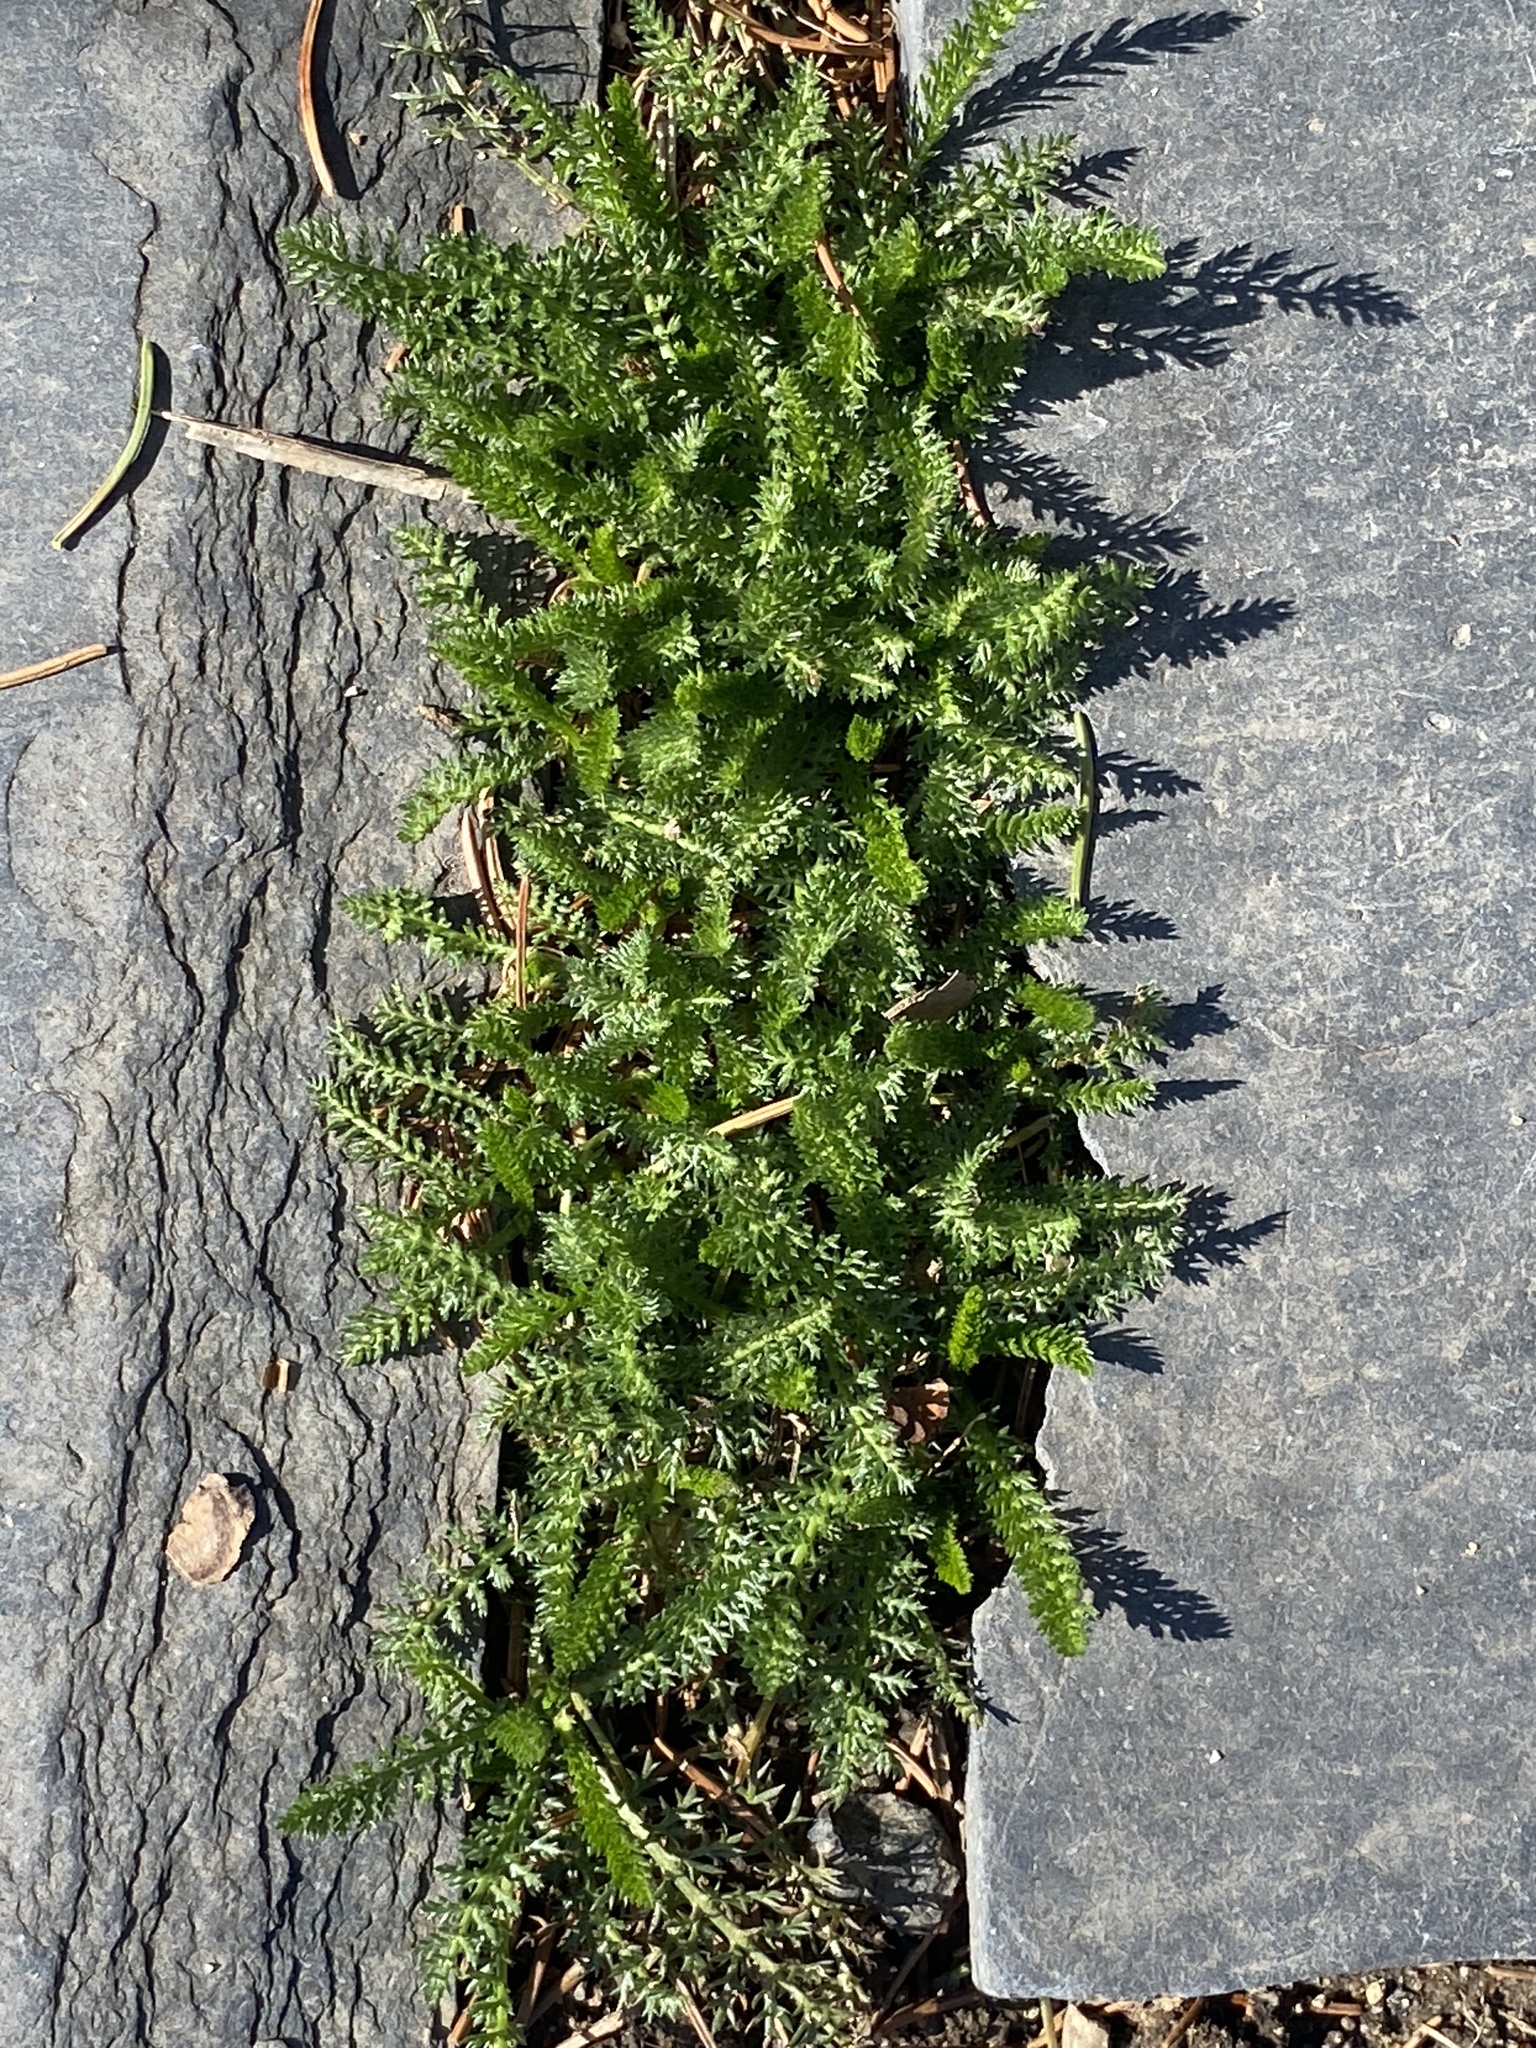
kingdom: Plantae
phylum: Tracheophyta
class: Magnoliopsida
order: Asterales
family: Asteraceae
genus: Achillea
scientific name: Achillea millefolium
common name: Yarrow
